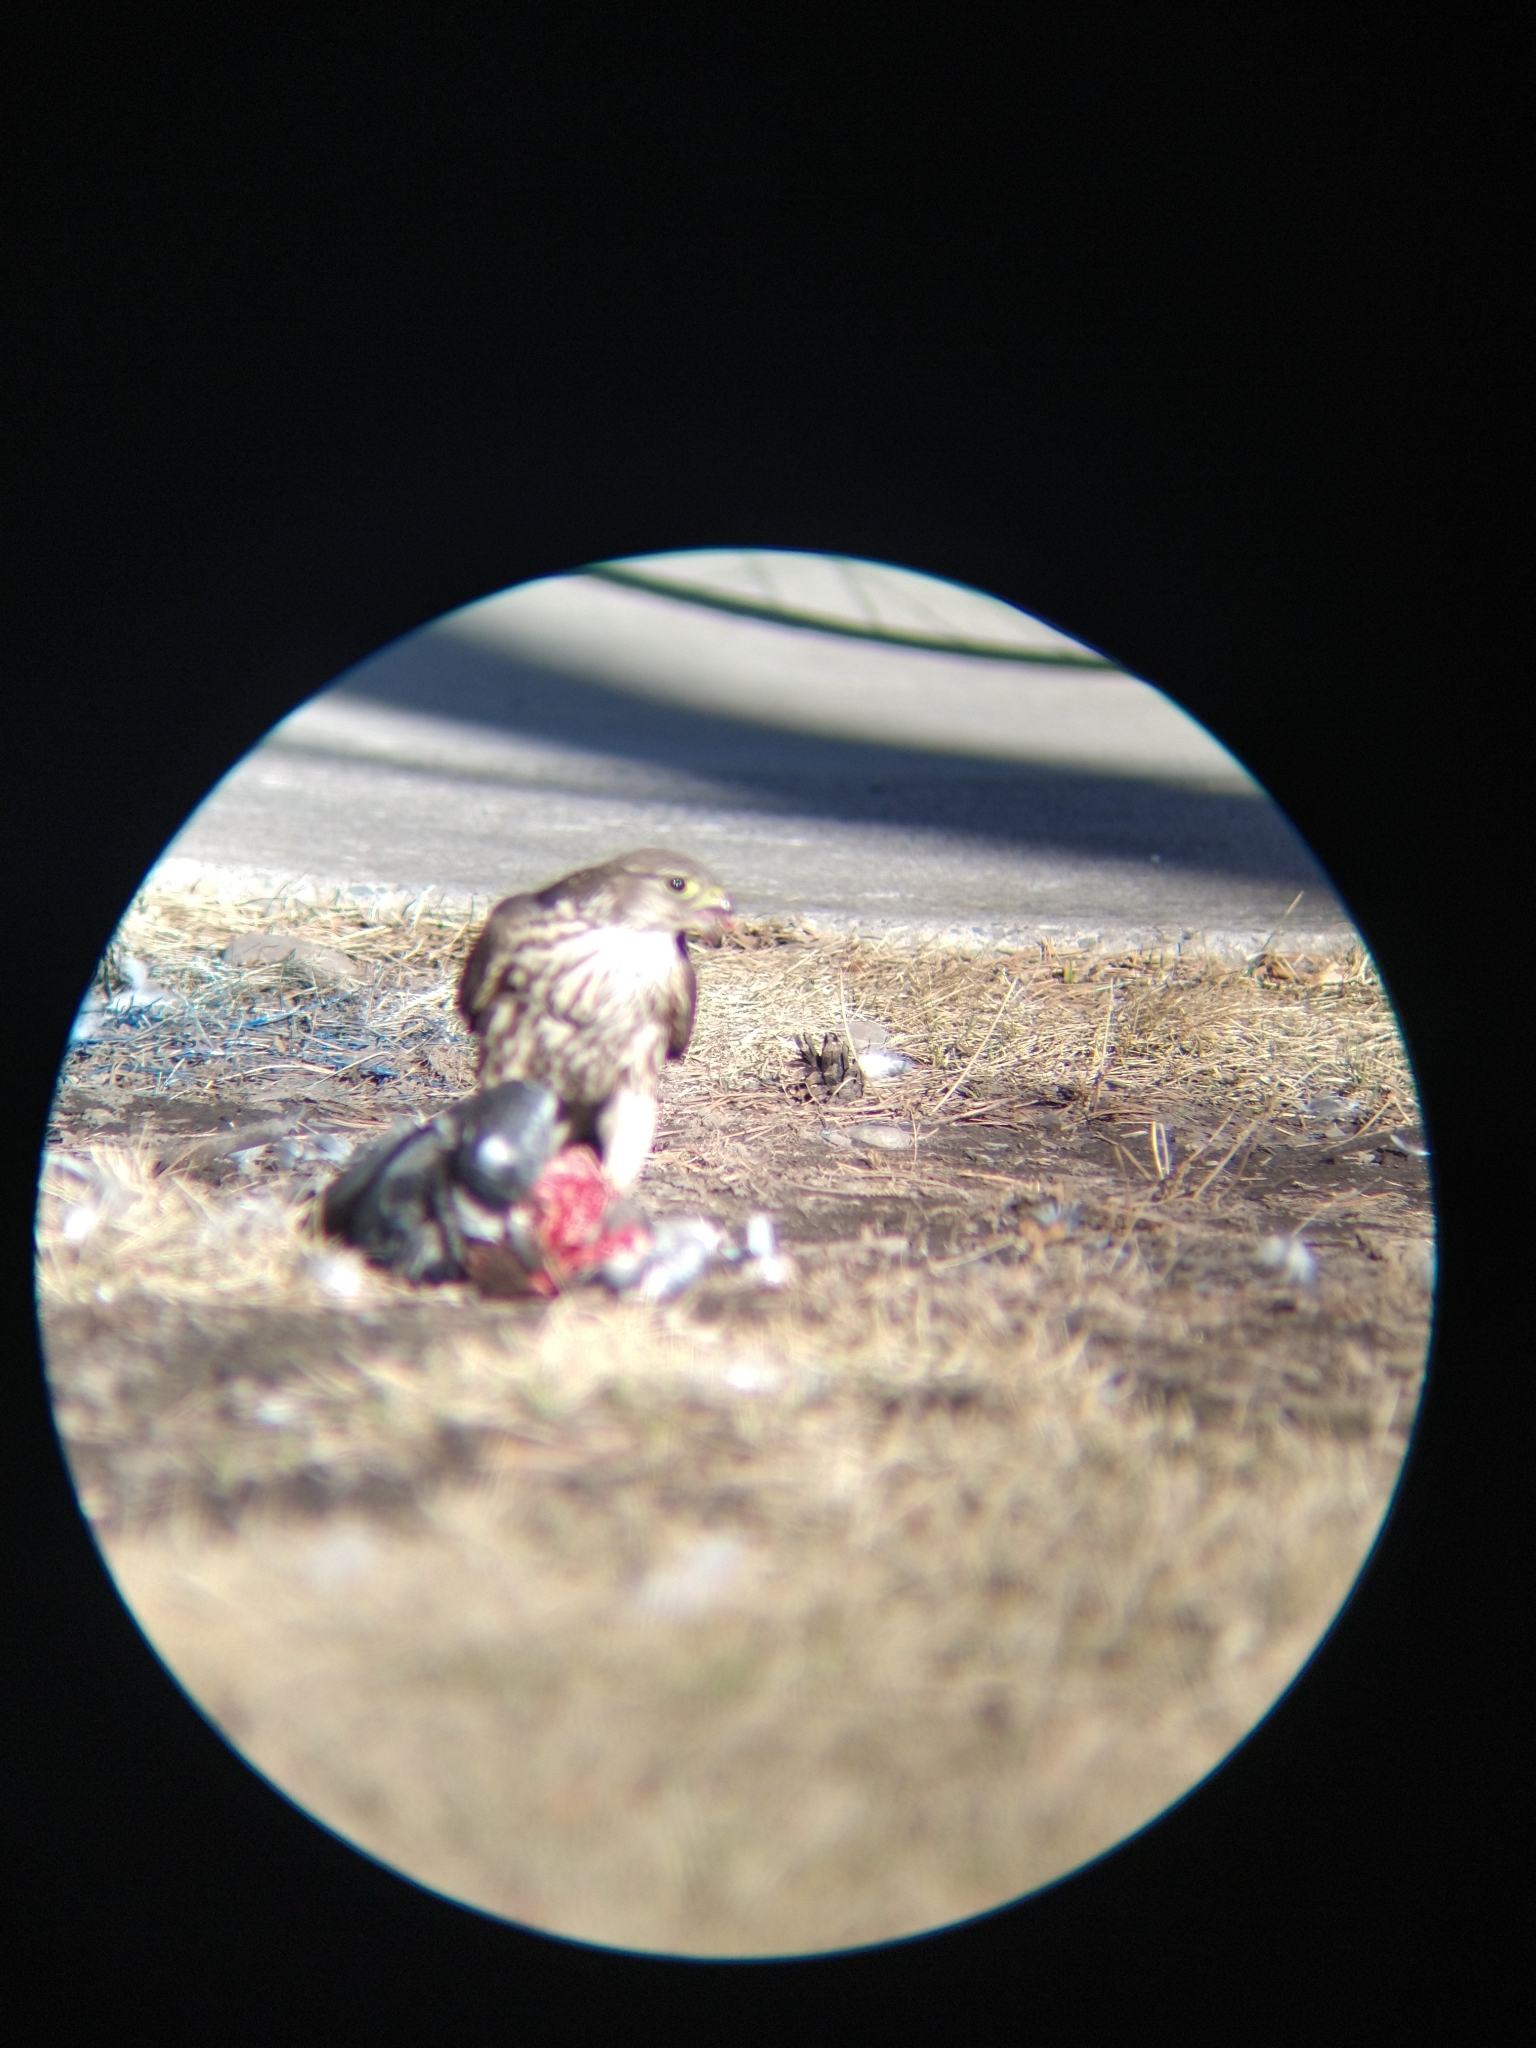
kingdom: Animalia
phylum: Chordata
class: Aves
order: Falconiformes
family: Falconidae
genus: Falco
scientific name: Falco columbarius
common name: Merlin
